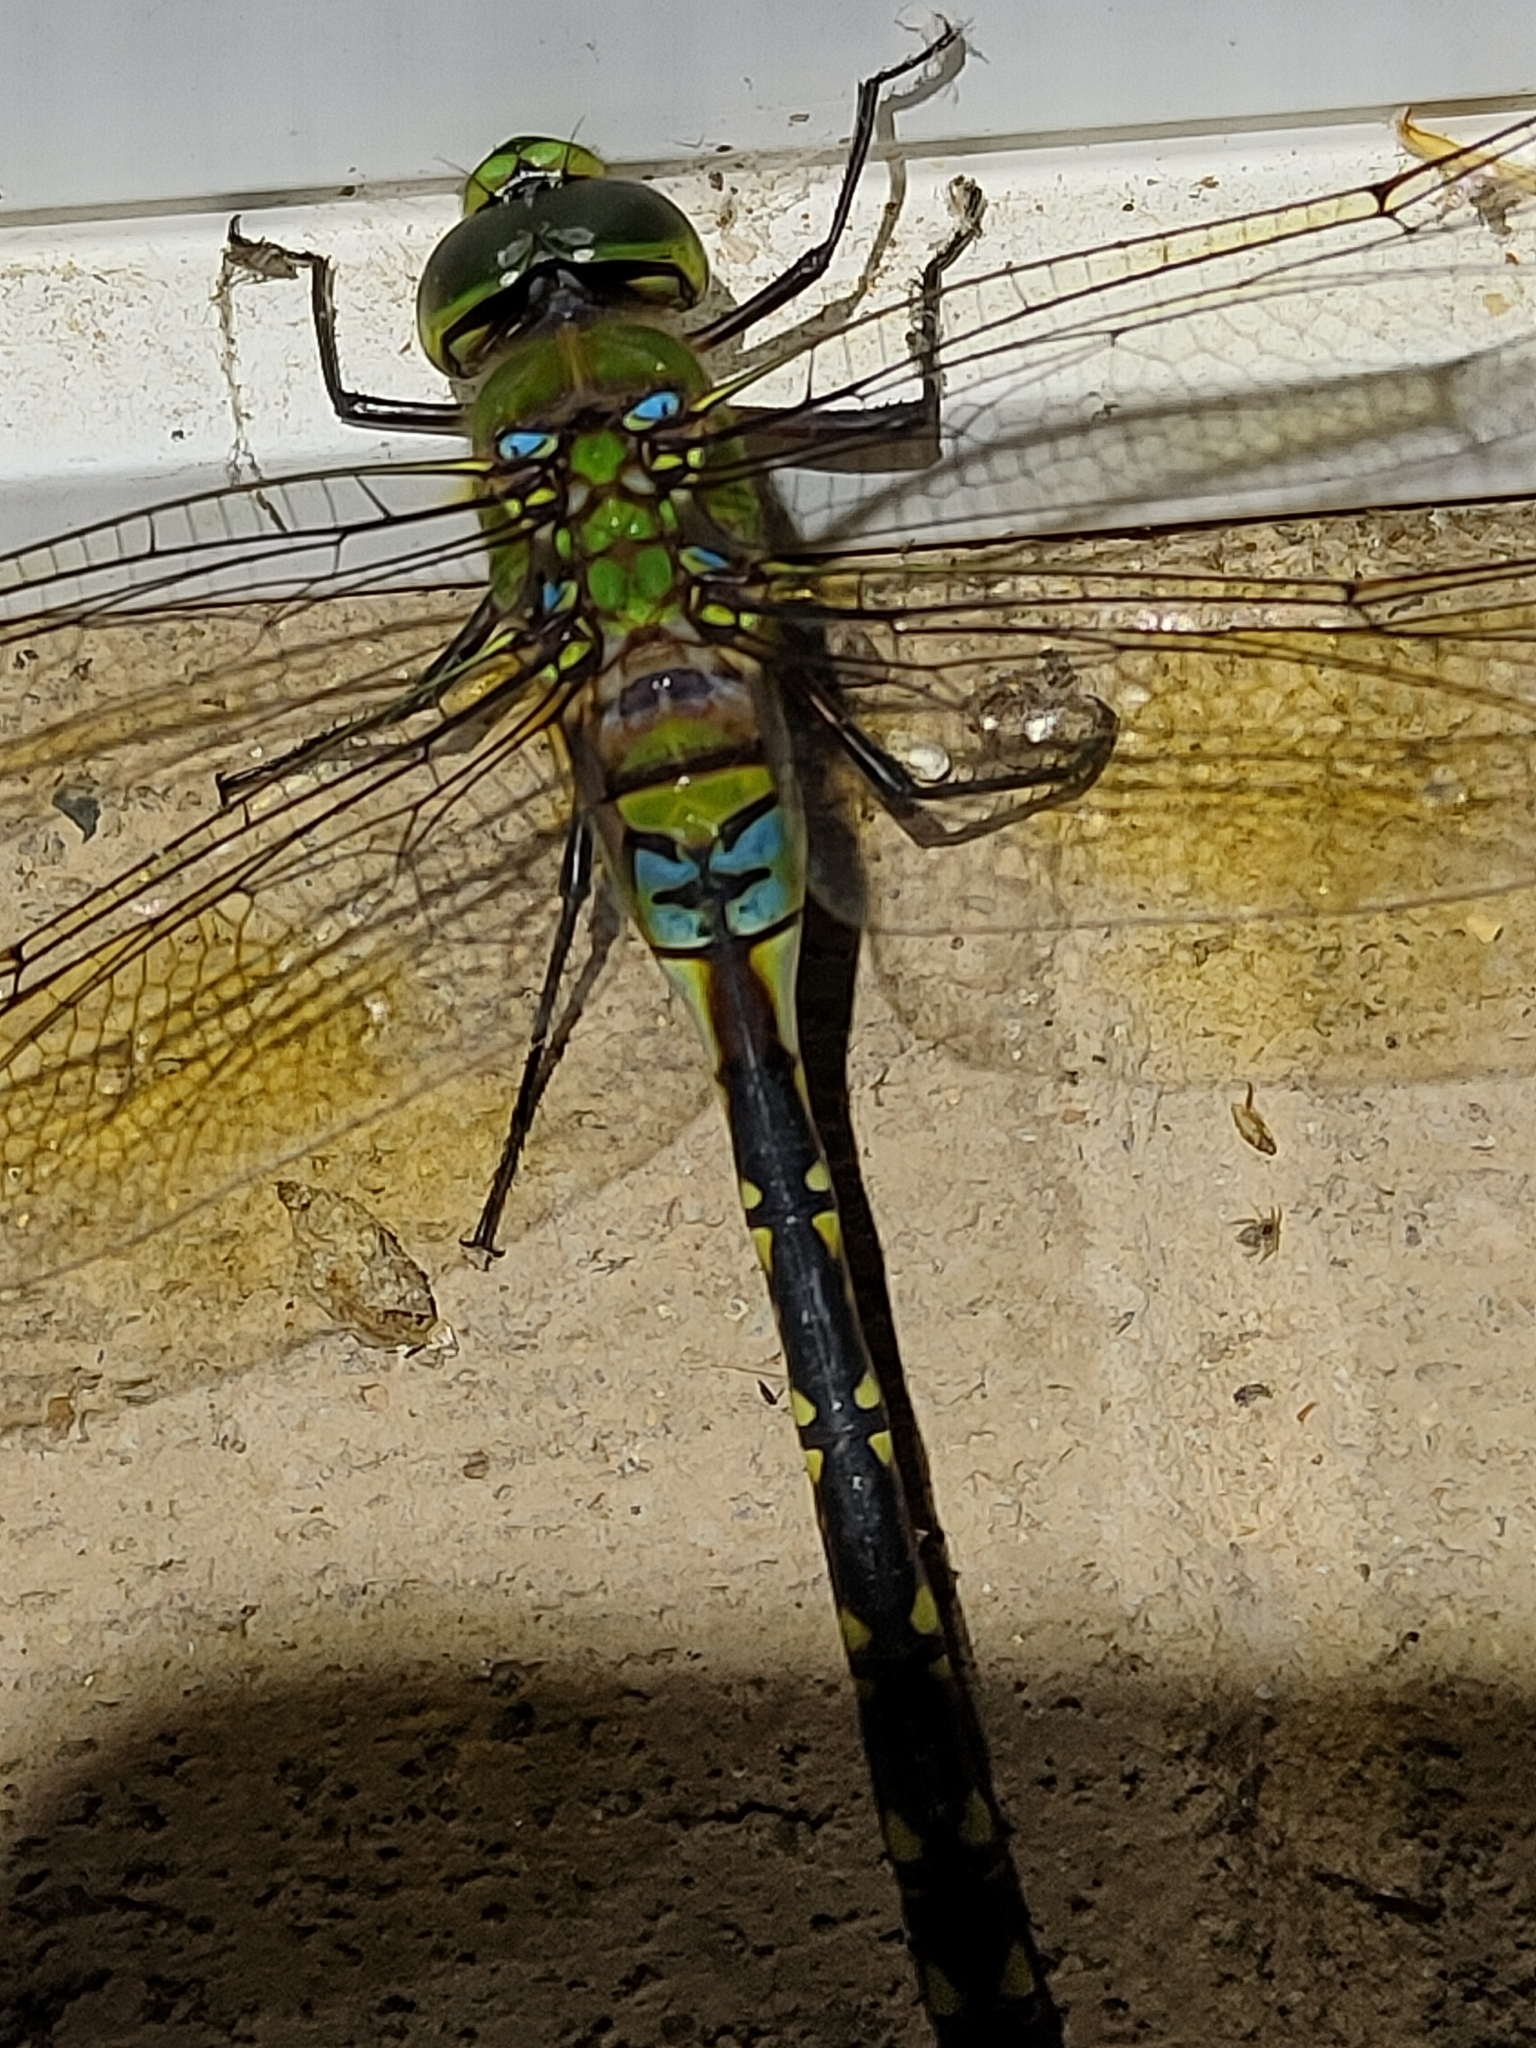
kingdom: Animalia
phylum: Arthropoda
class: Insecta
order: Odonata
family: Aeshnidae
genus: Anax
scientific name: Anax gibbosulus
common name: Green emperor
